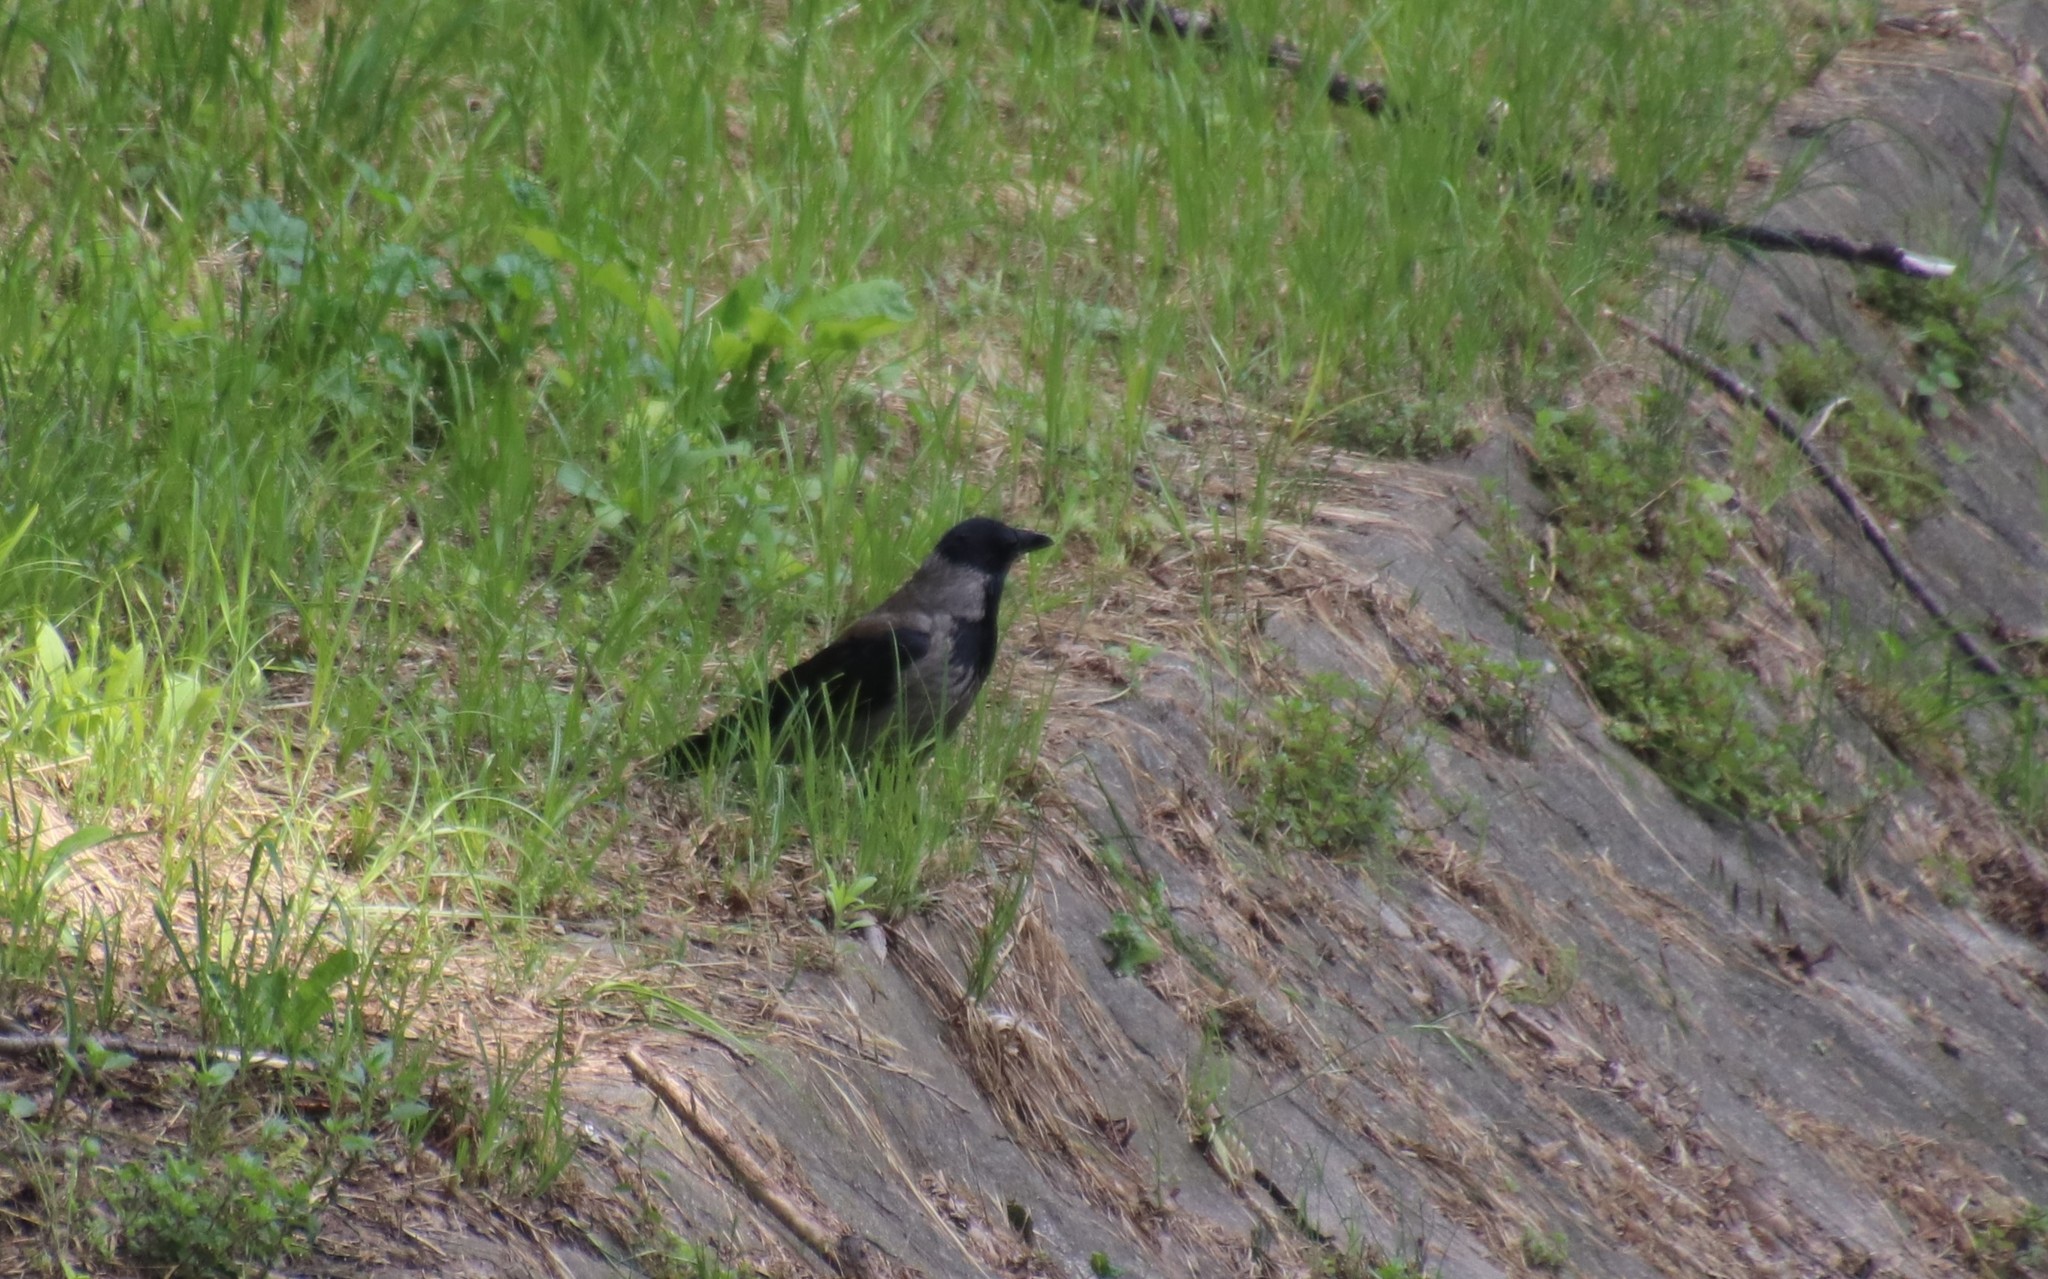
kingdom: Animalia
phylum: Chordata
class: Aves
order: Passeriformes
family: Corvidae
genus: Corvus
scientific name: Corvus cornix
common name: Hooded crow
